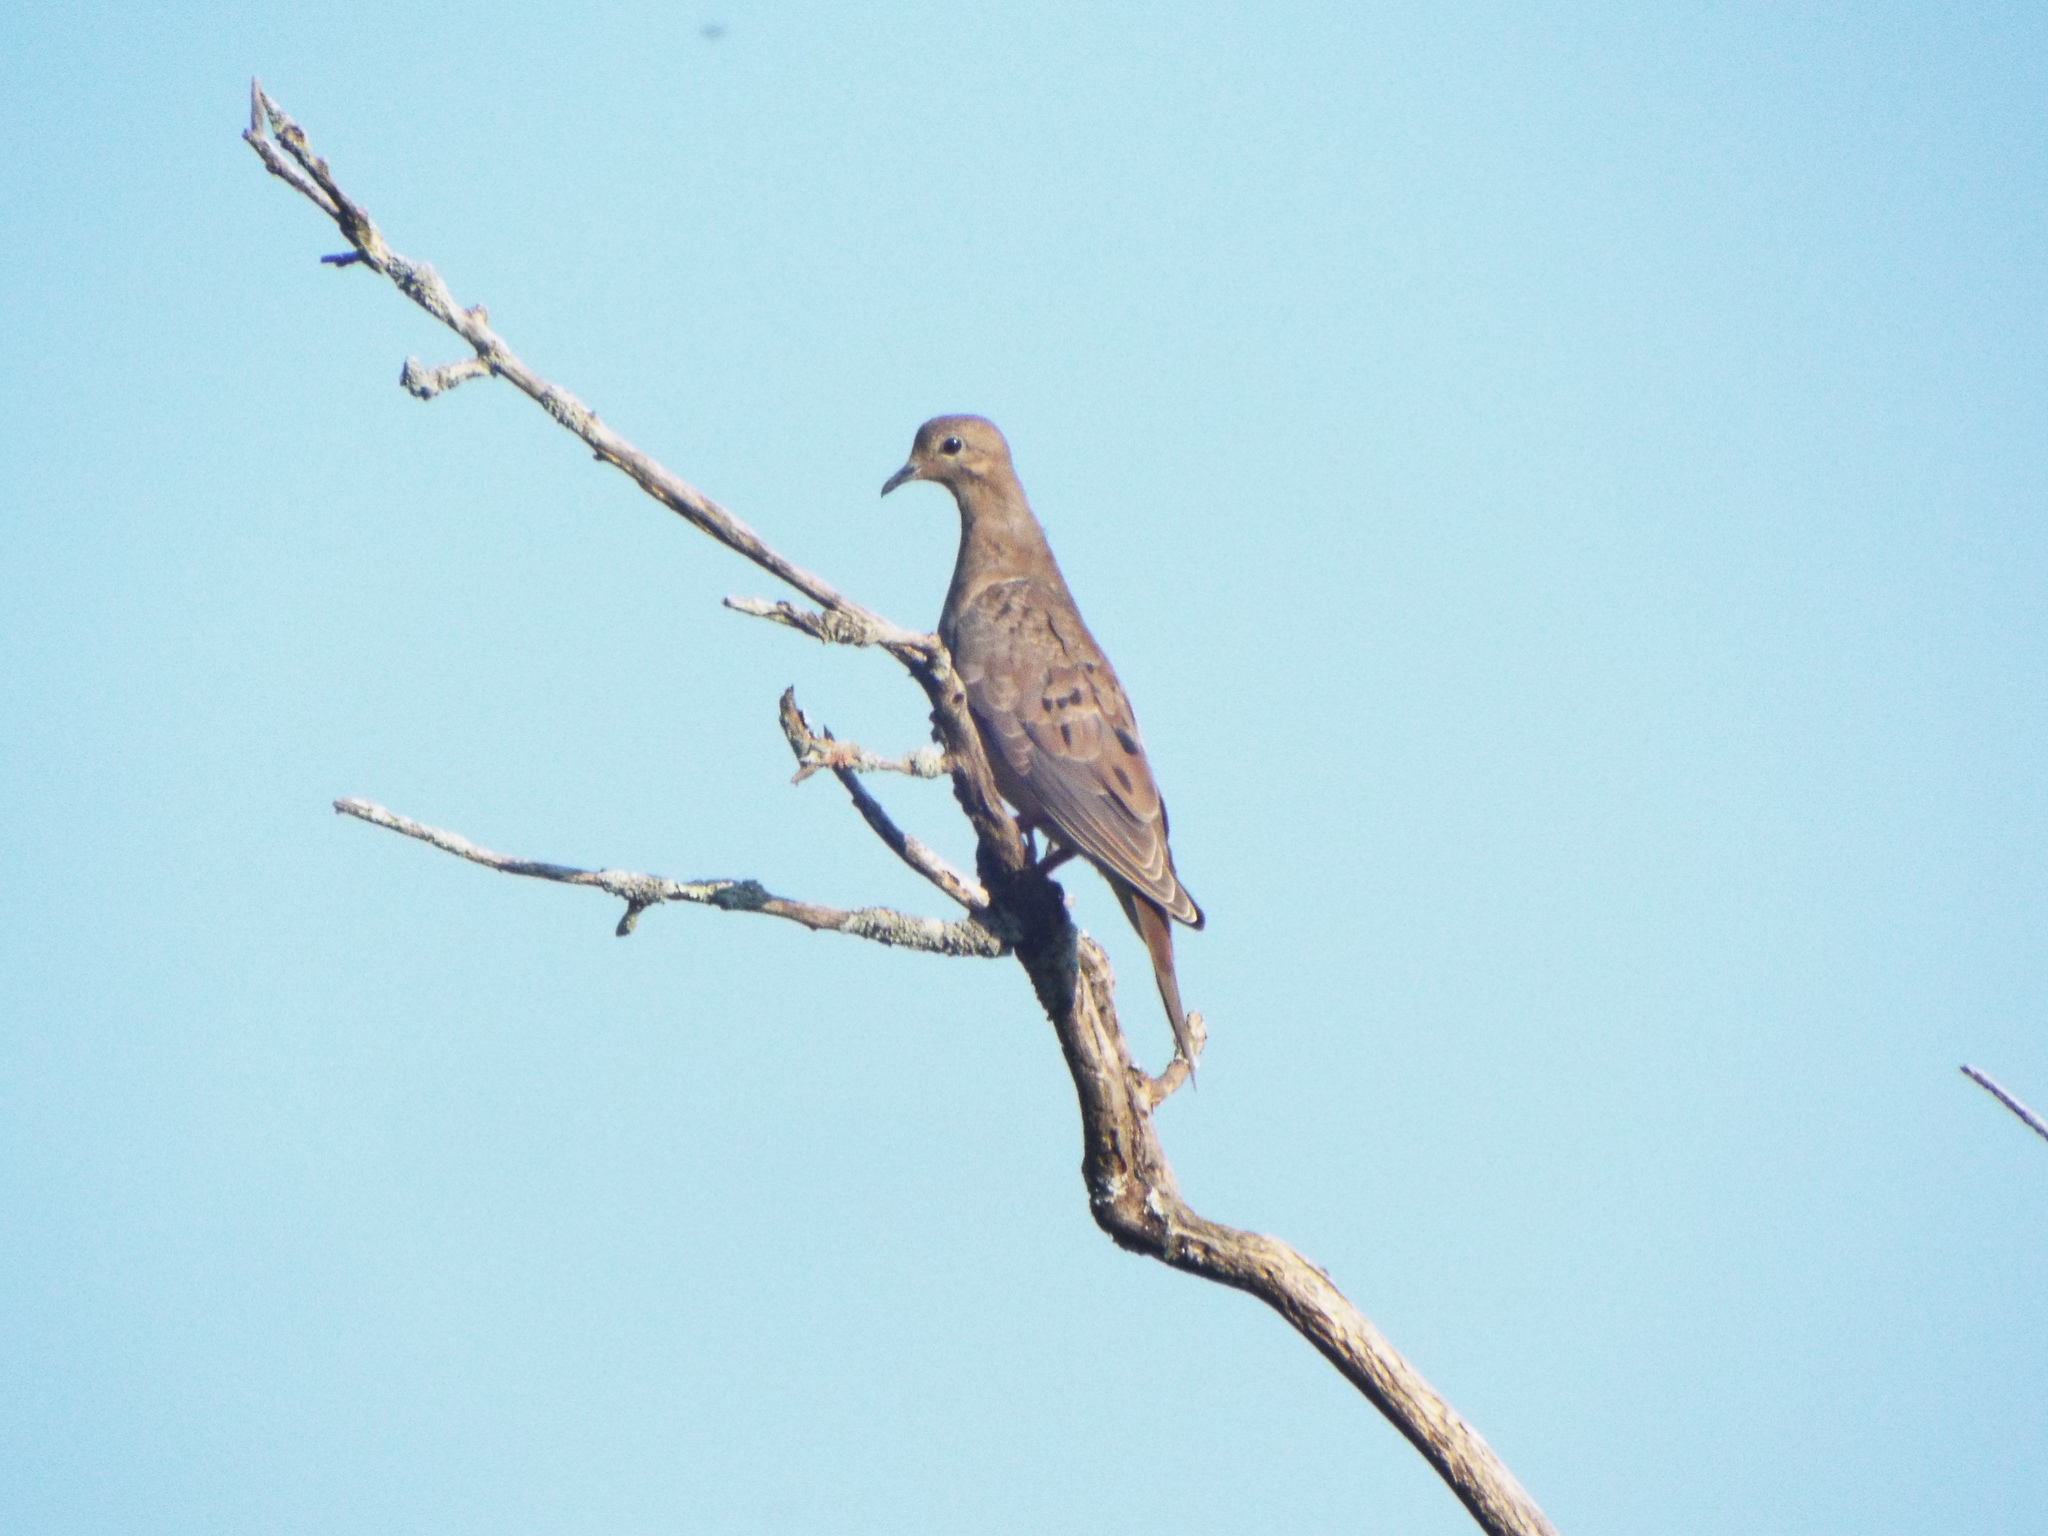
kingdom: Animalia
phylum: Chordata
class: Aves
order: Columbiformes
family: Columbidae
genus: Zenaida
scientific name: Zenaida macroura
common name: Mourning dove
